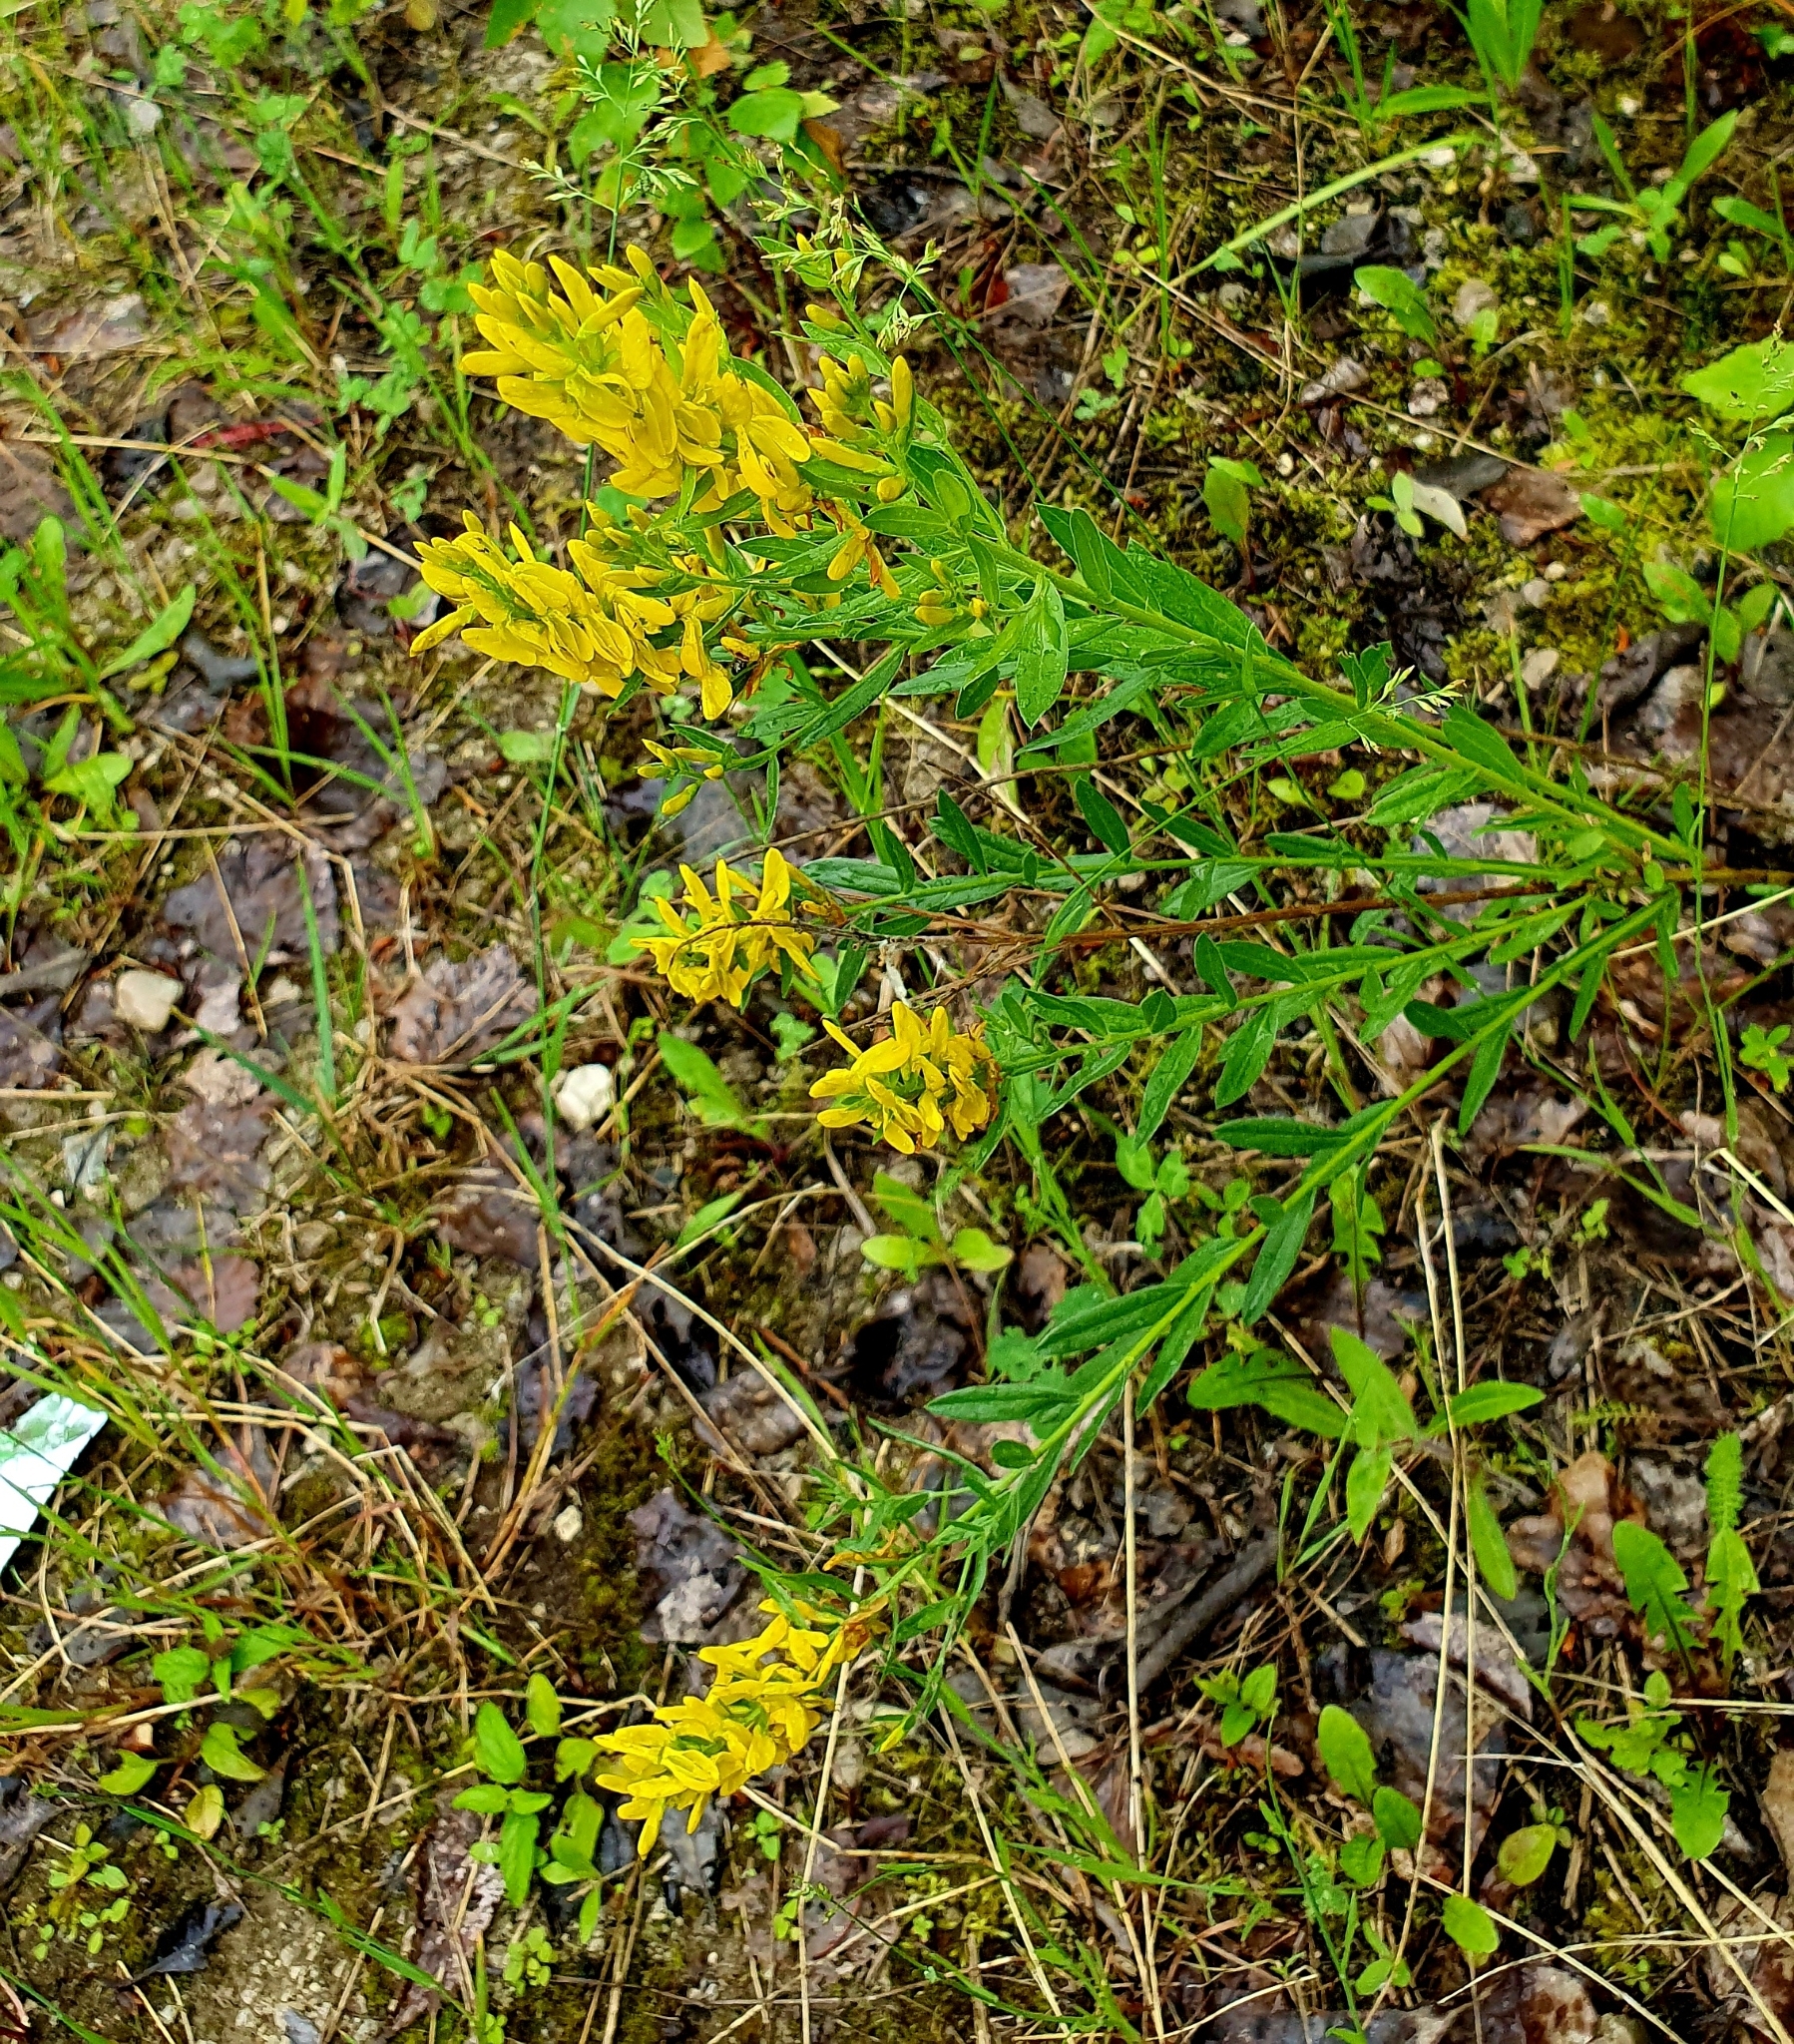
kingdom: Plantae
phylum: Tracheophyta
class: Magnoliopsida
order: Fabales
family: Fabaceae
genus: Genista
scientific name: Genista tinctoria
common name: Dyer's greenweed
